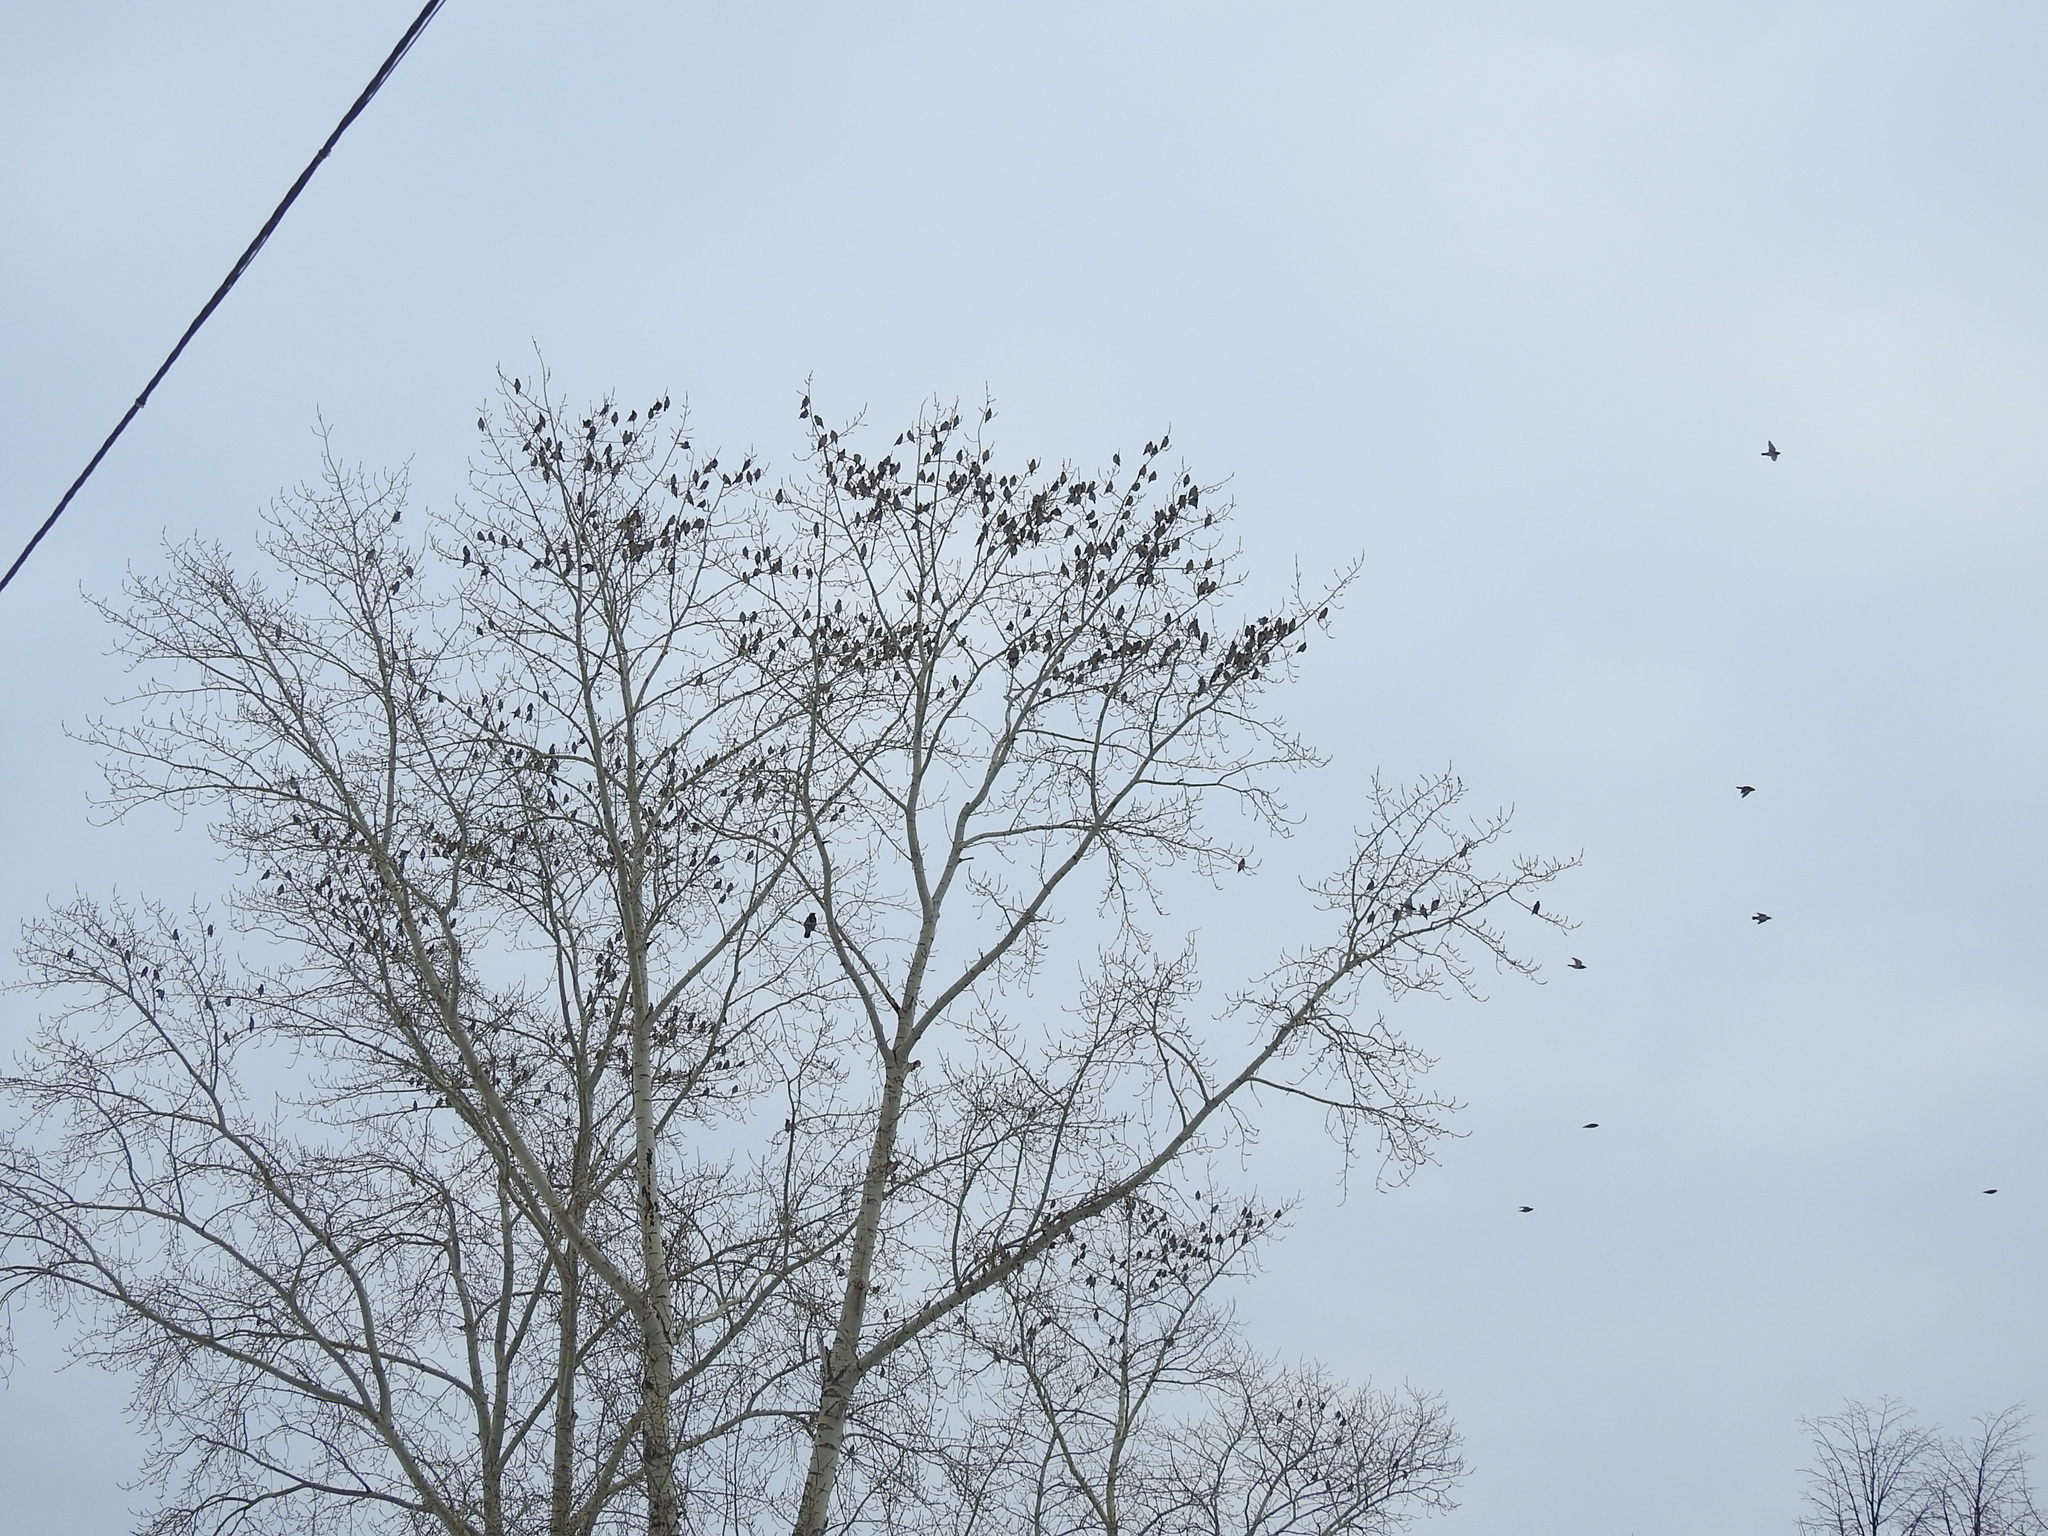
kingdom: Animalia
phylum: Chordata
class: Aves
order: Passeriformes
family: Bombycillidae
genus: Bombycilla
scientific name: Bombycilla garrulus
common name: Bohemian waxwing
